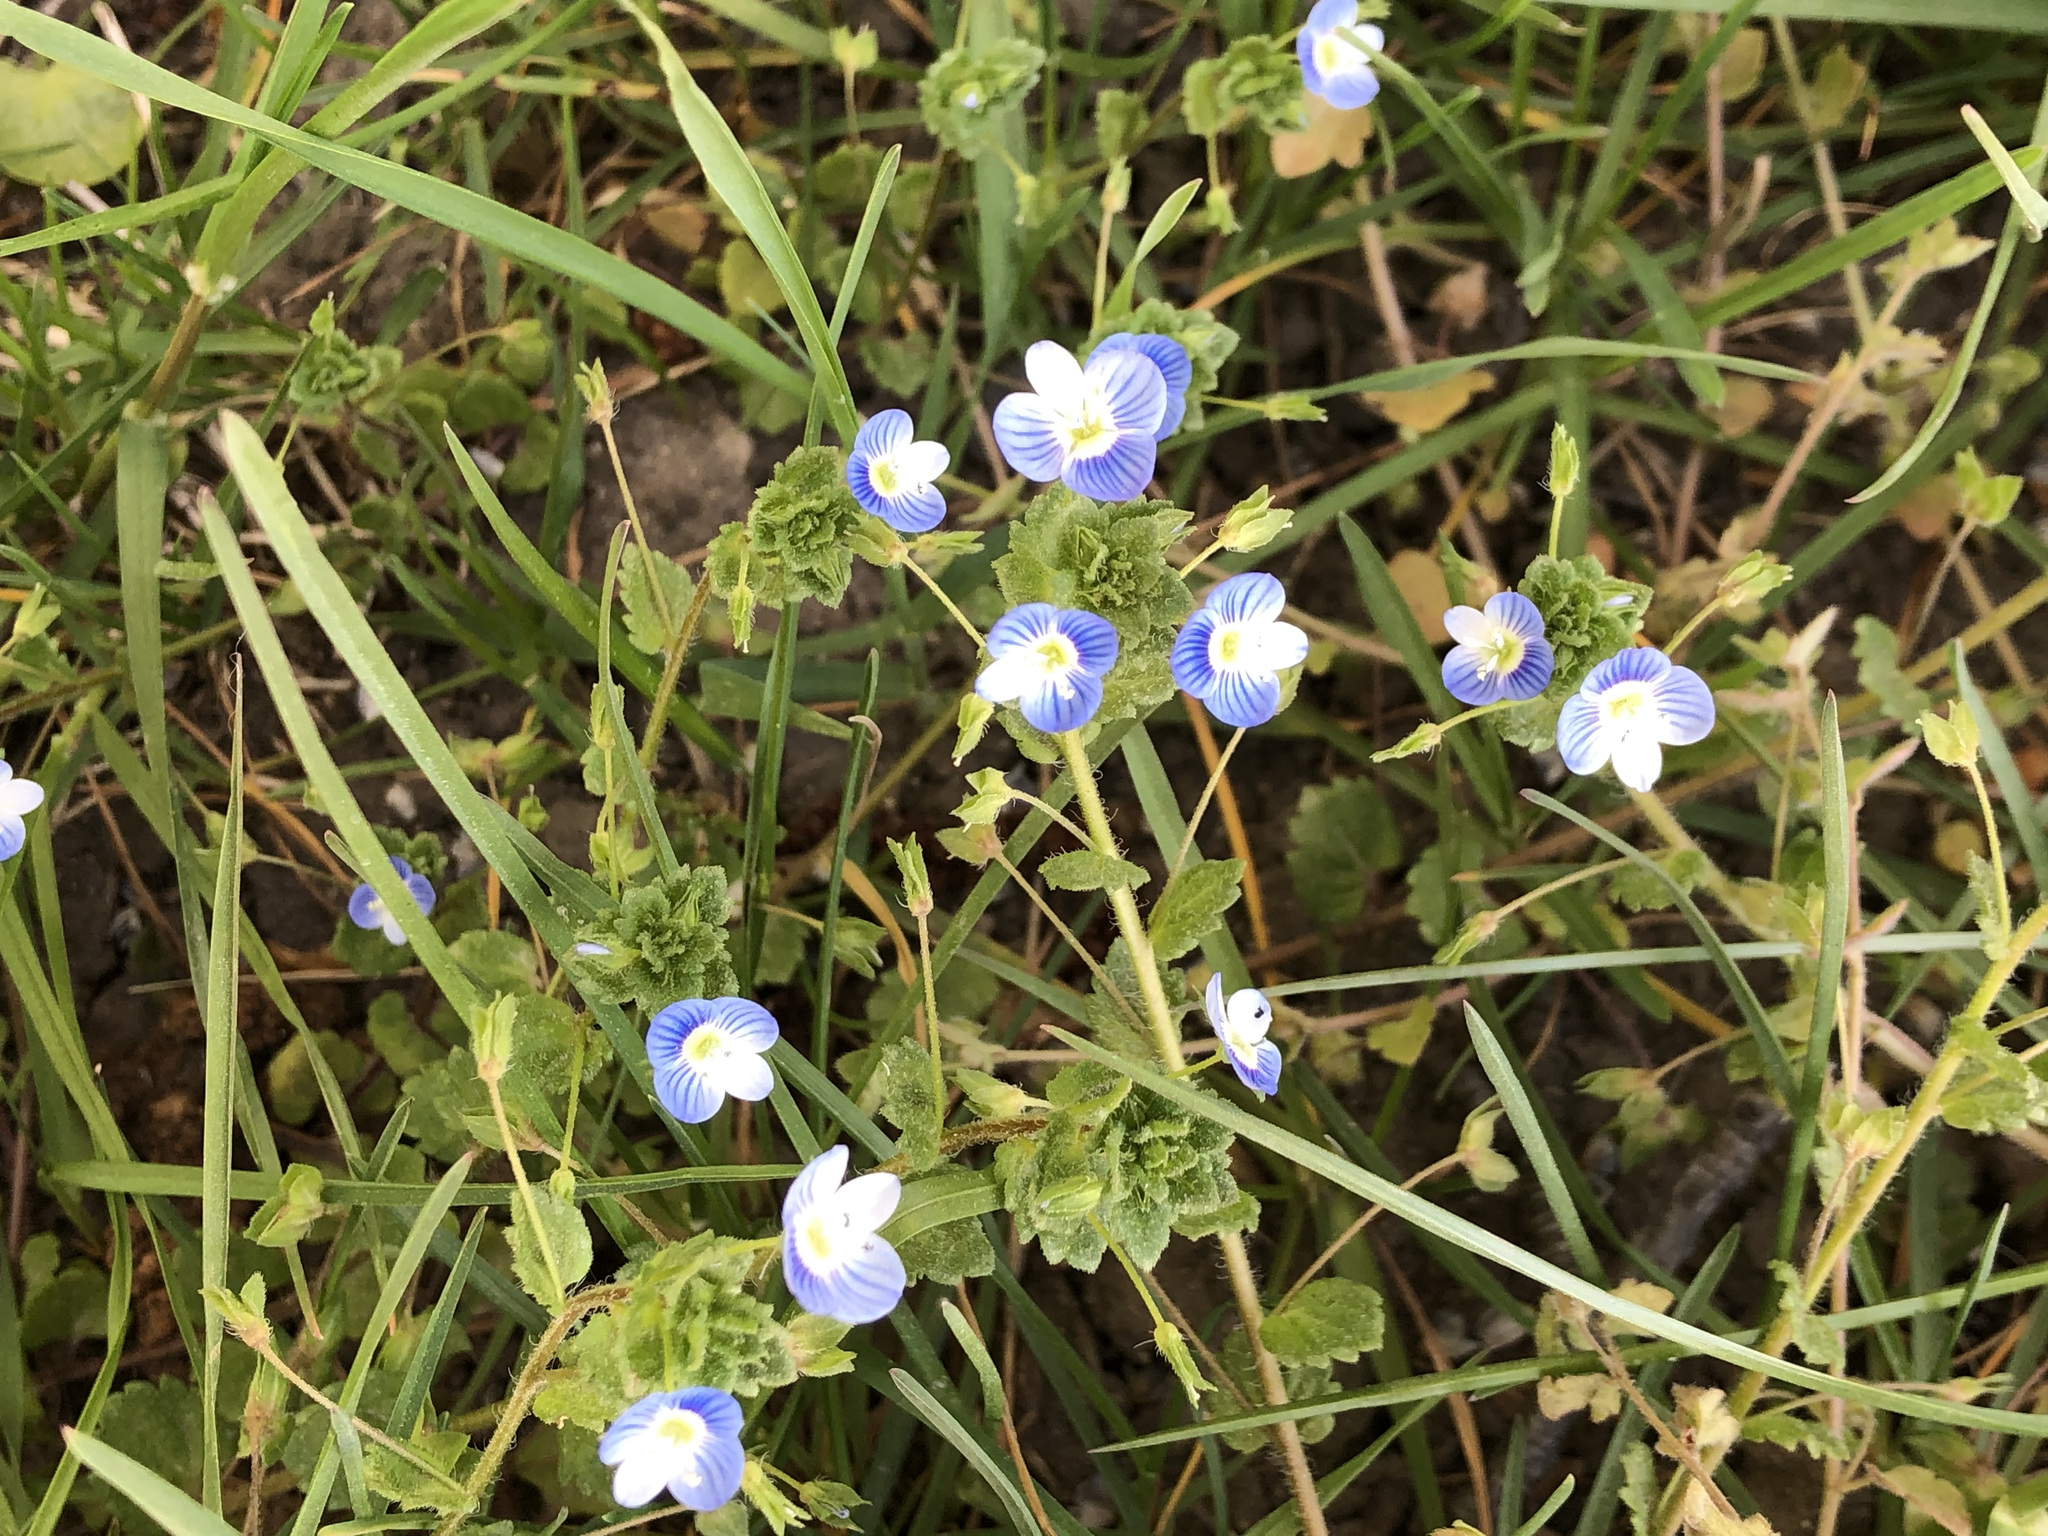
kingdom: Plantae
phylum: Tracheophyta
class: Magnoliopsida
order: Lamiales
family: Plantaginaceae
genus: Veronica
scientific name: Veronica persica
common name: Common field-speedwell
